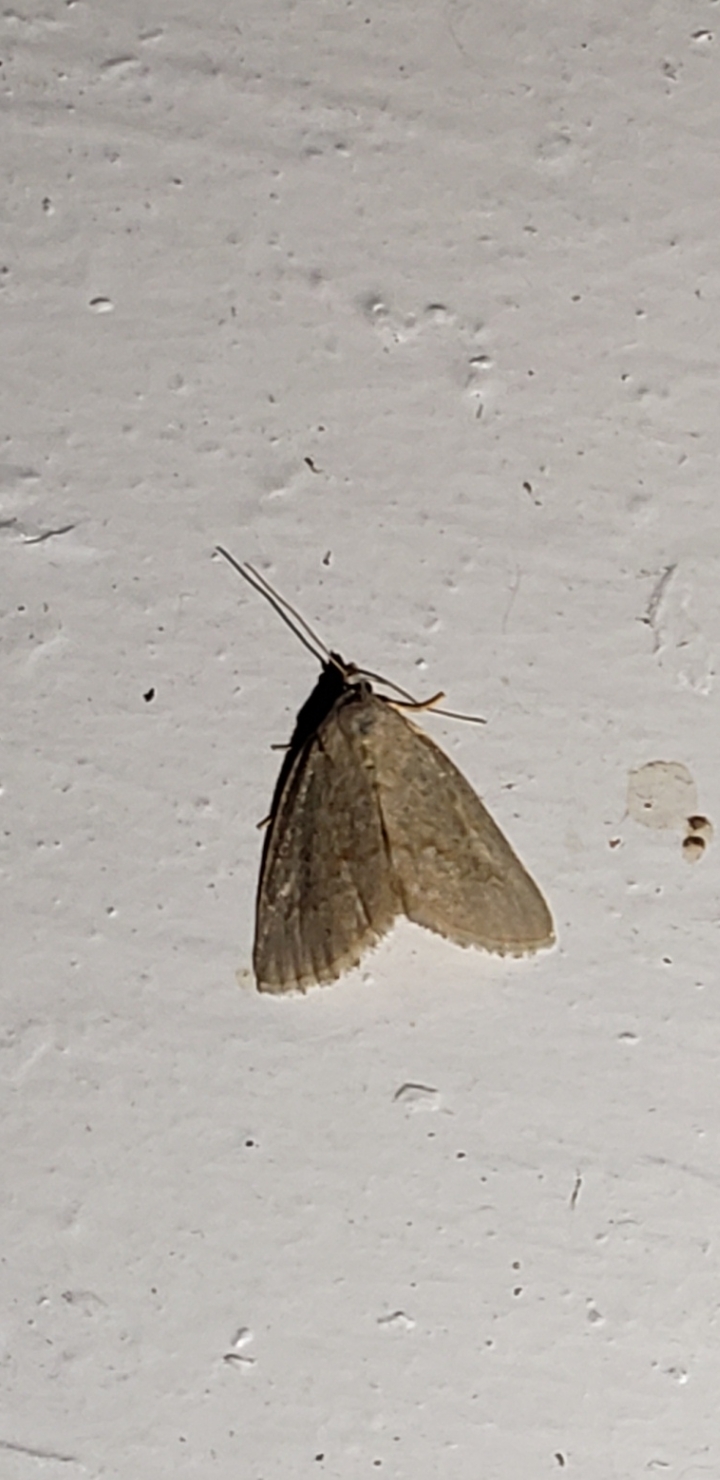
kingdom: Animalia
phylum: Arthropoda
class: Insecta
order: Lepidoptera
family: Noctuidae
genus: Protodeltote
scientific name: Protodeltote albidula
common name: Pale glyph
